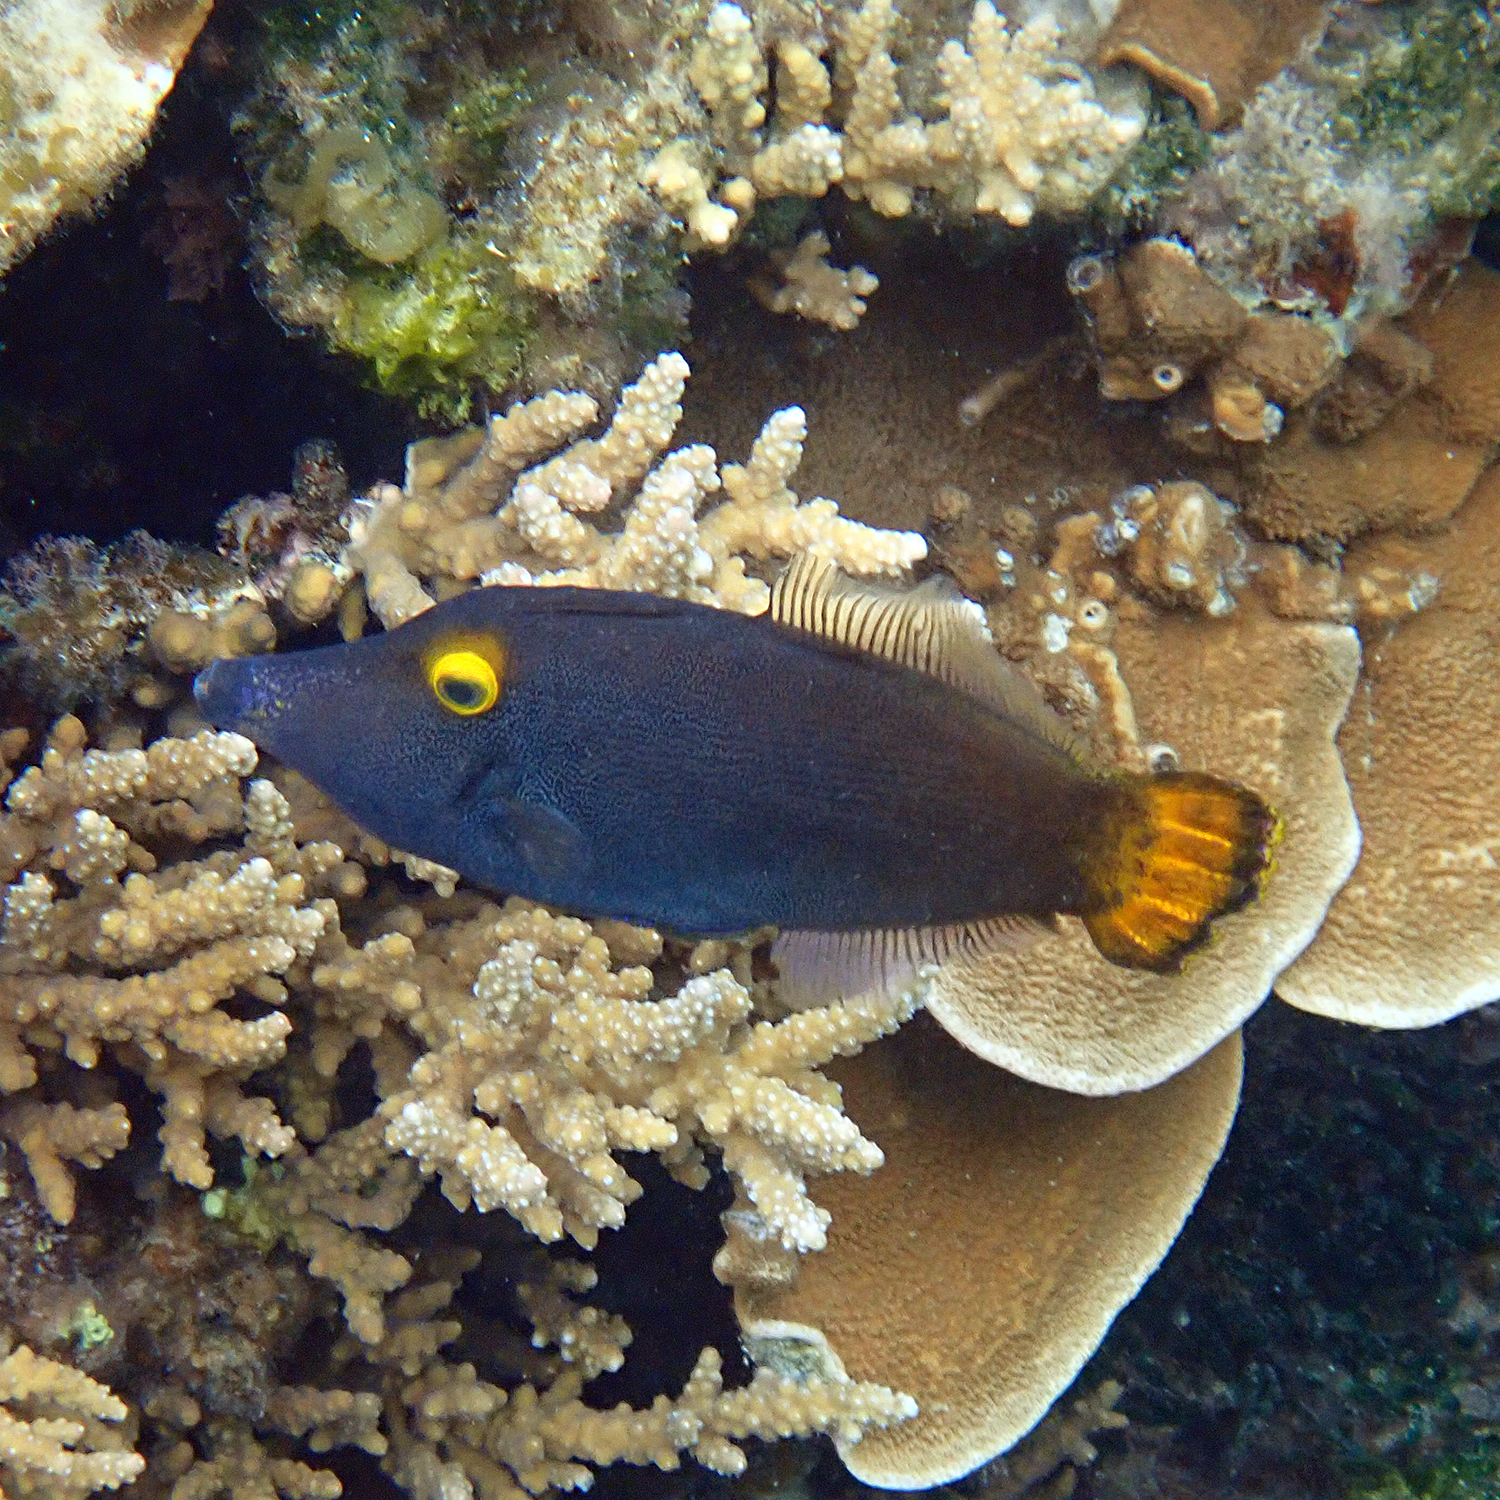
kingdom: Animalia
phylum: Chordata
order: Tetraodontiformes
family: Monacanthidae
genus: Pervagor
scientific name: Pervagor alternans
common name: Yelloweye filefish
